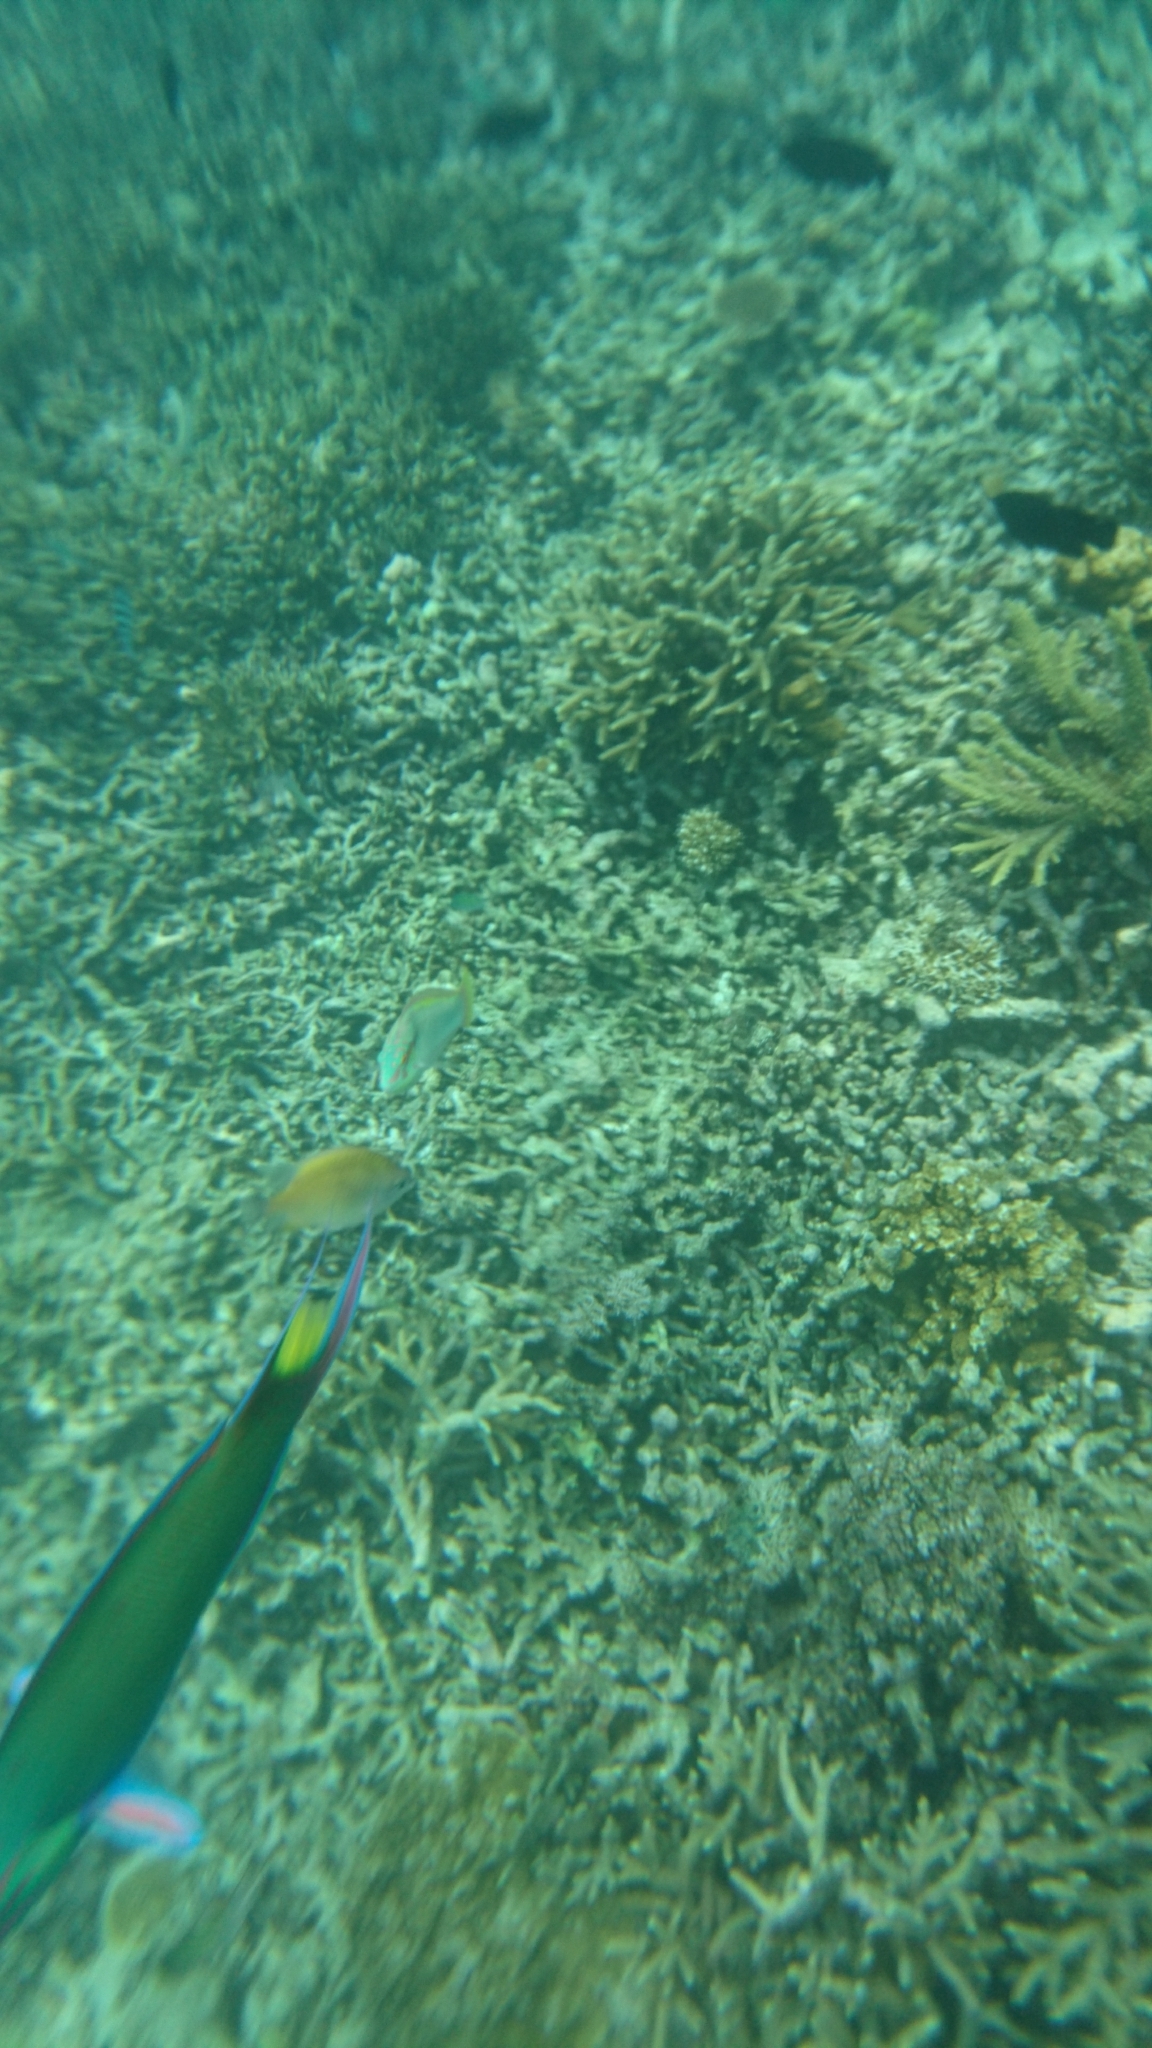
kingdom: Animalia
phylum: Chordata
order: Perciformes
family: Labridae
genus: Halichoeres
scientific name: Halichoeres scapularis
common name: Brownbanded wrasse
